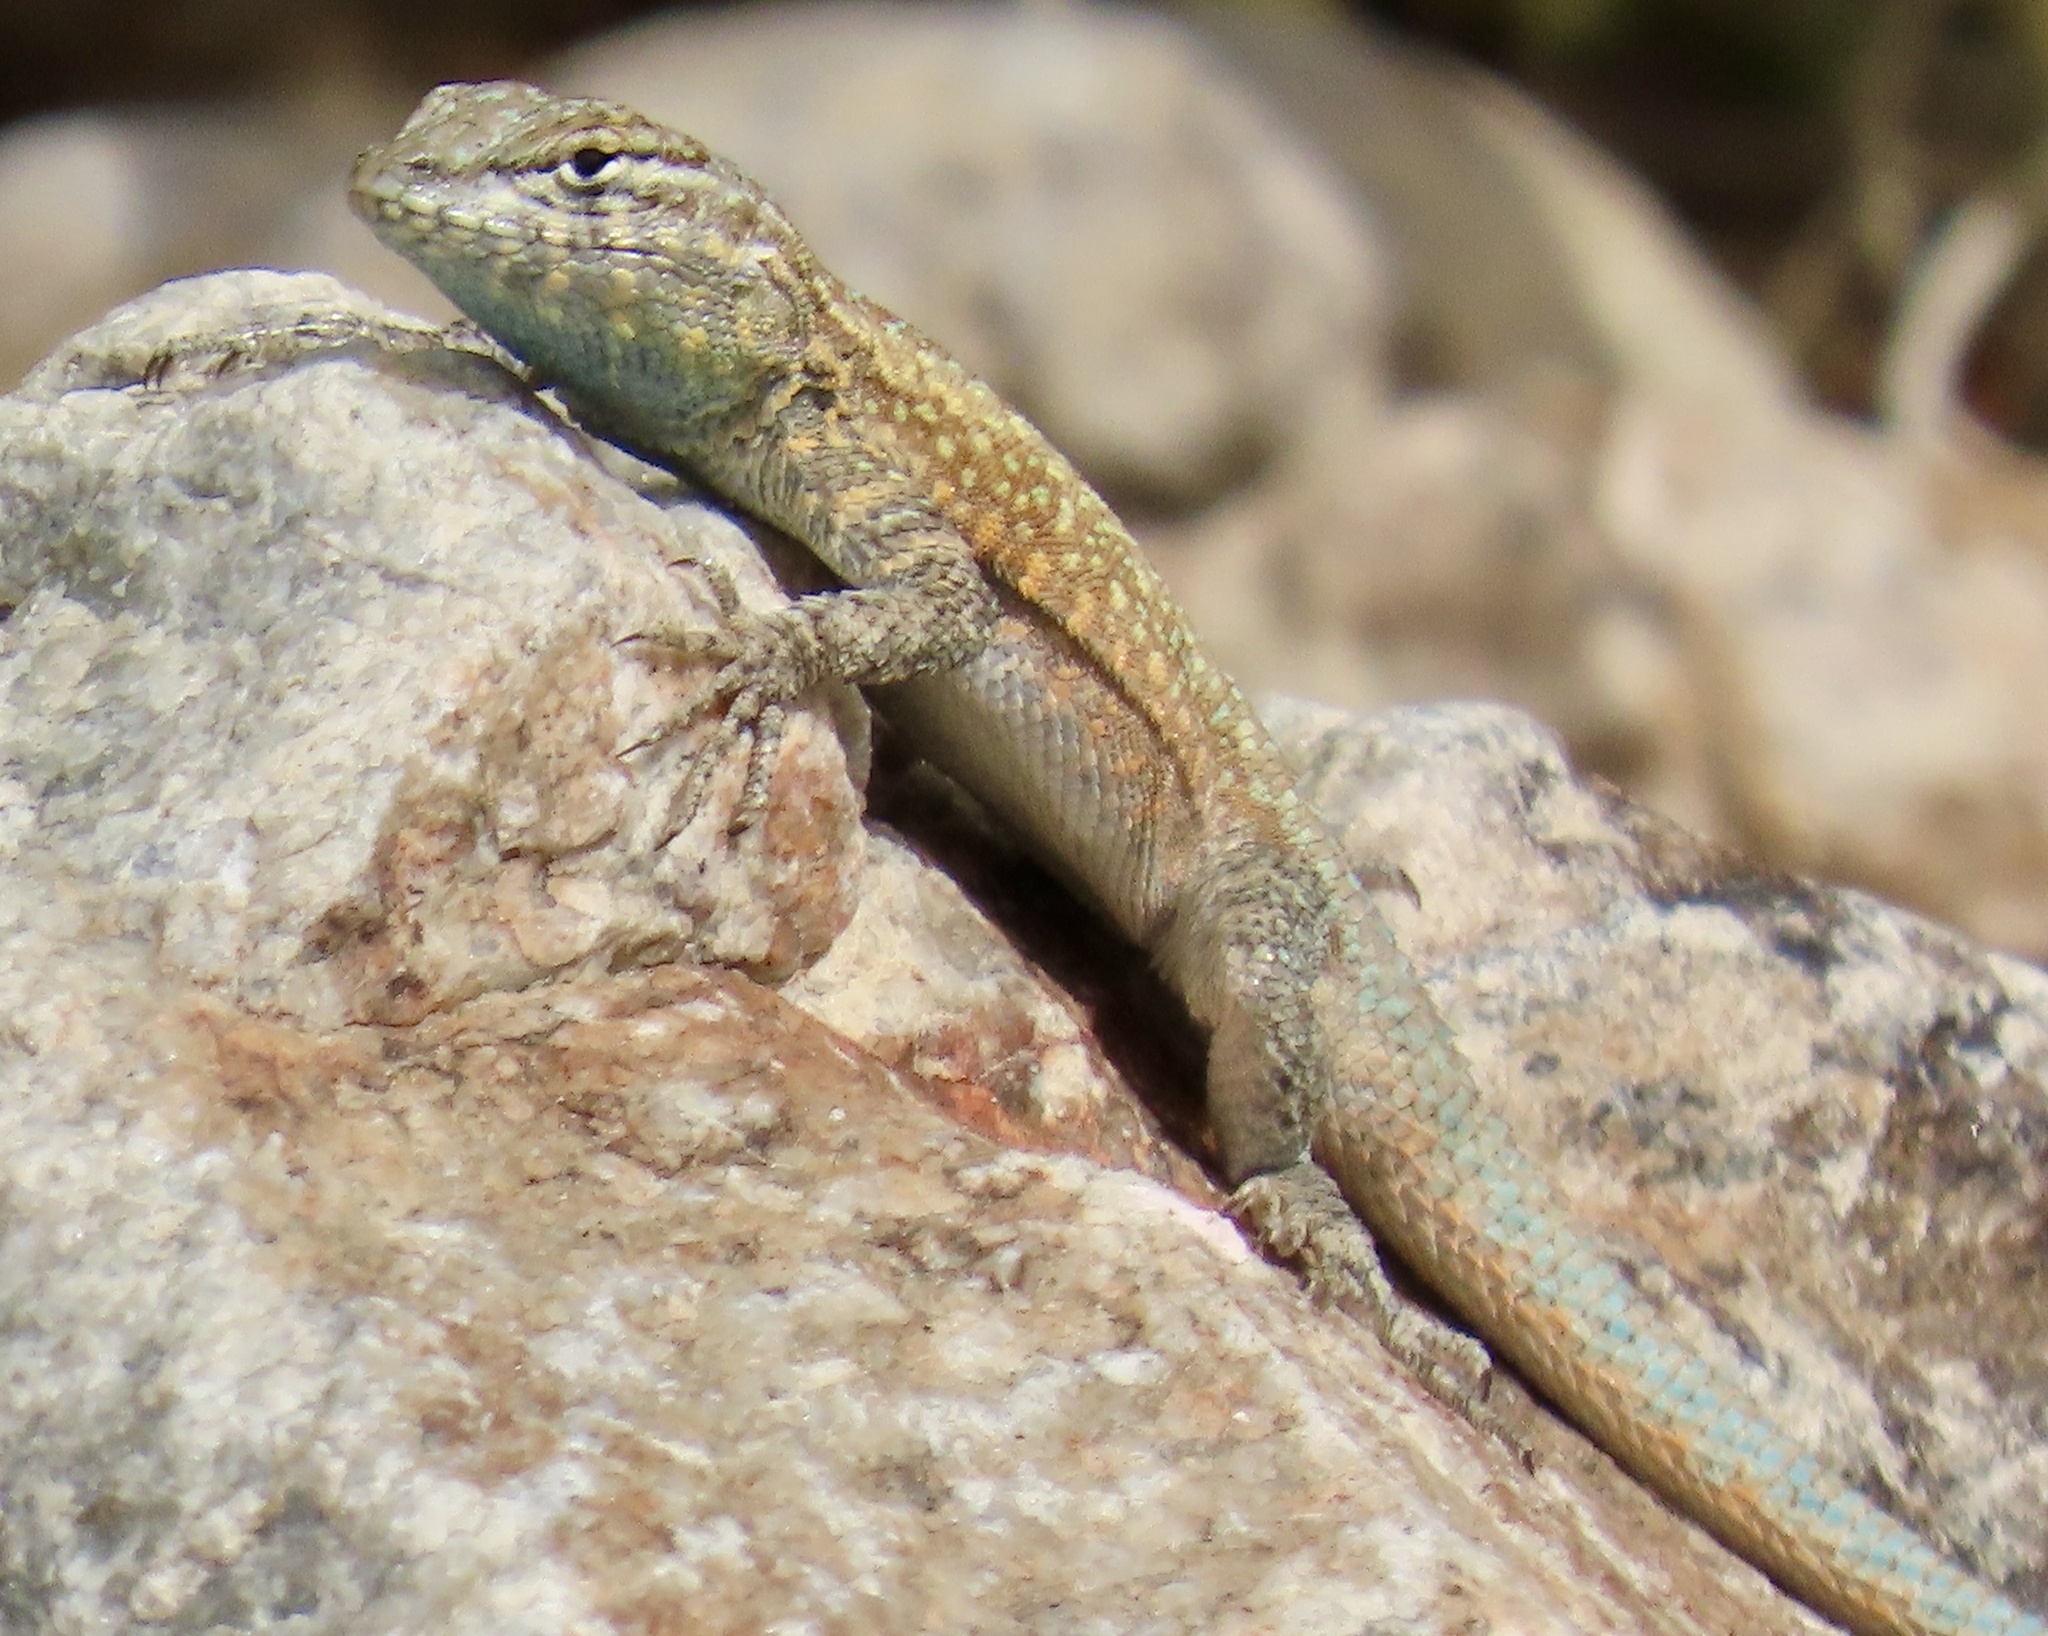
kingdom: Animalia
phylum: Chordata
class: Squamata
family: Phrynosomatidae
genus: Uta
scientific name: Uta stansburiana
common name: Side-blotched lizard
